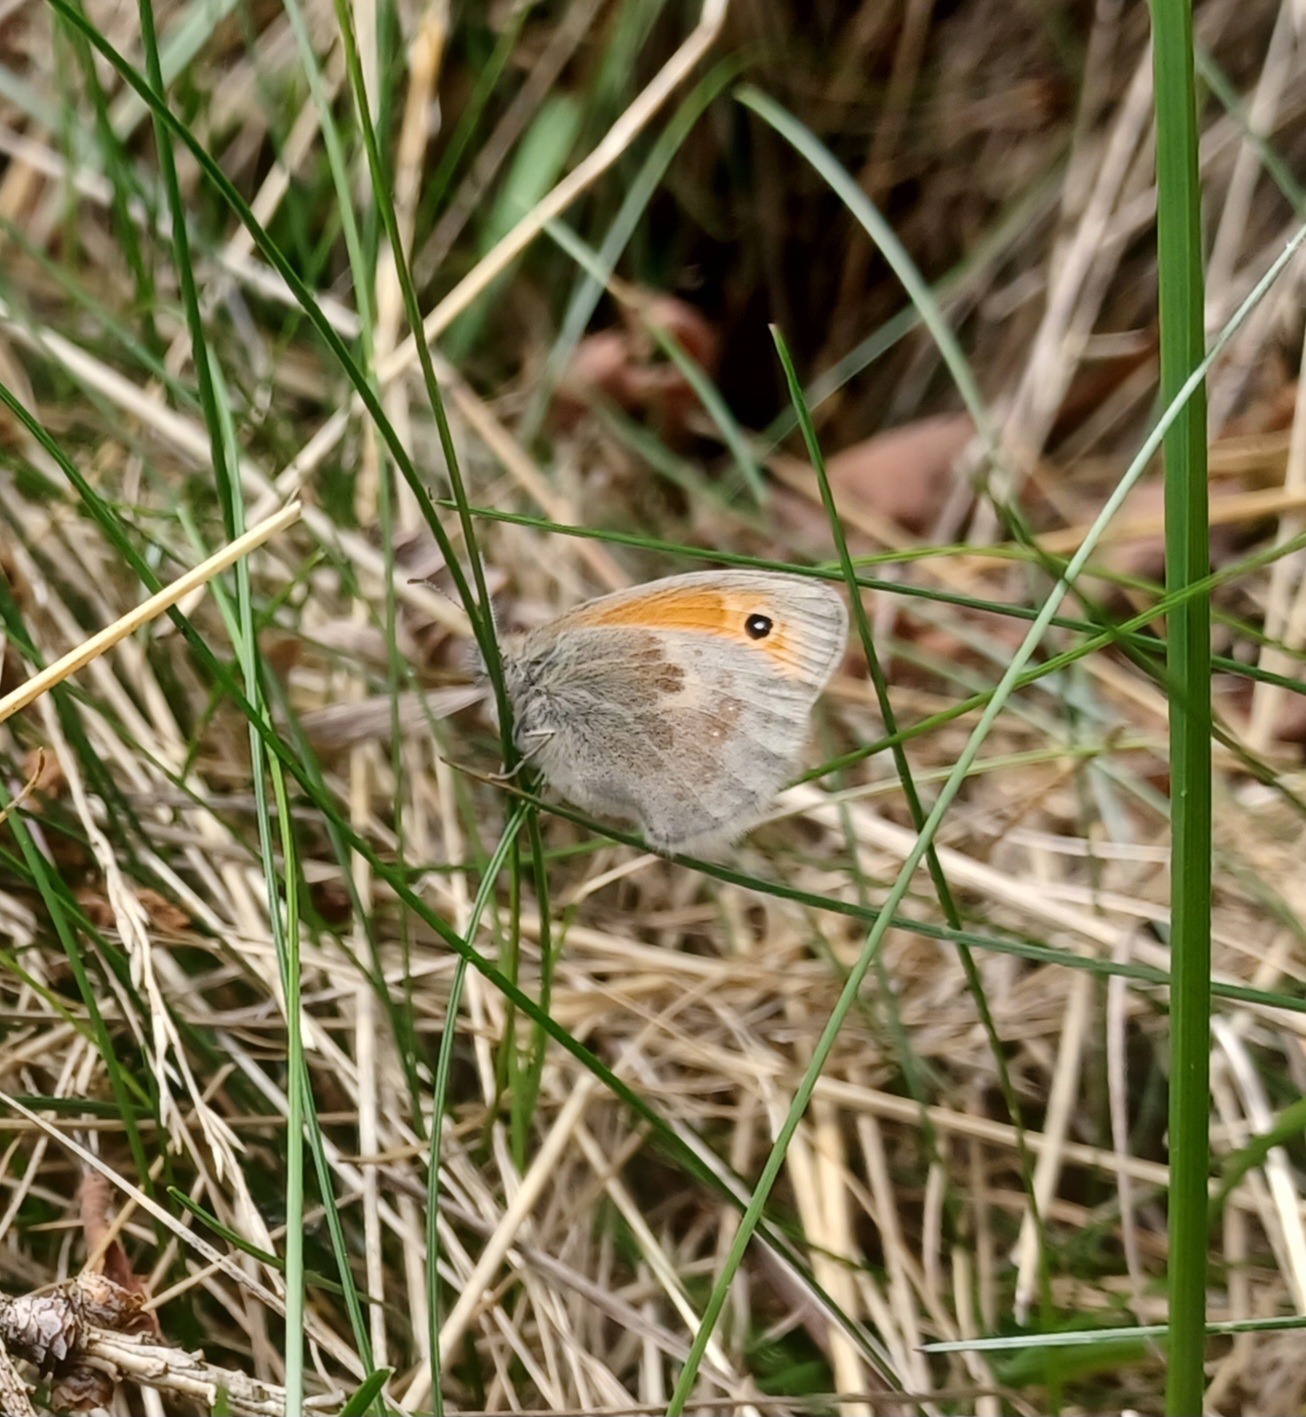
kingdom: Animalia
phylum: Arthropoda
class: Insecta
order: Lepidoptera
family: Nymphalidae
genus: Coenonympha
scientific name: Coenonympha pamphilus
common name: Small heath
